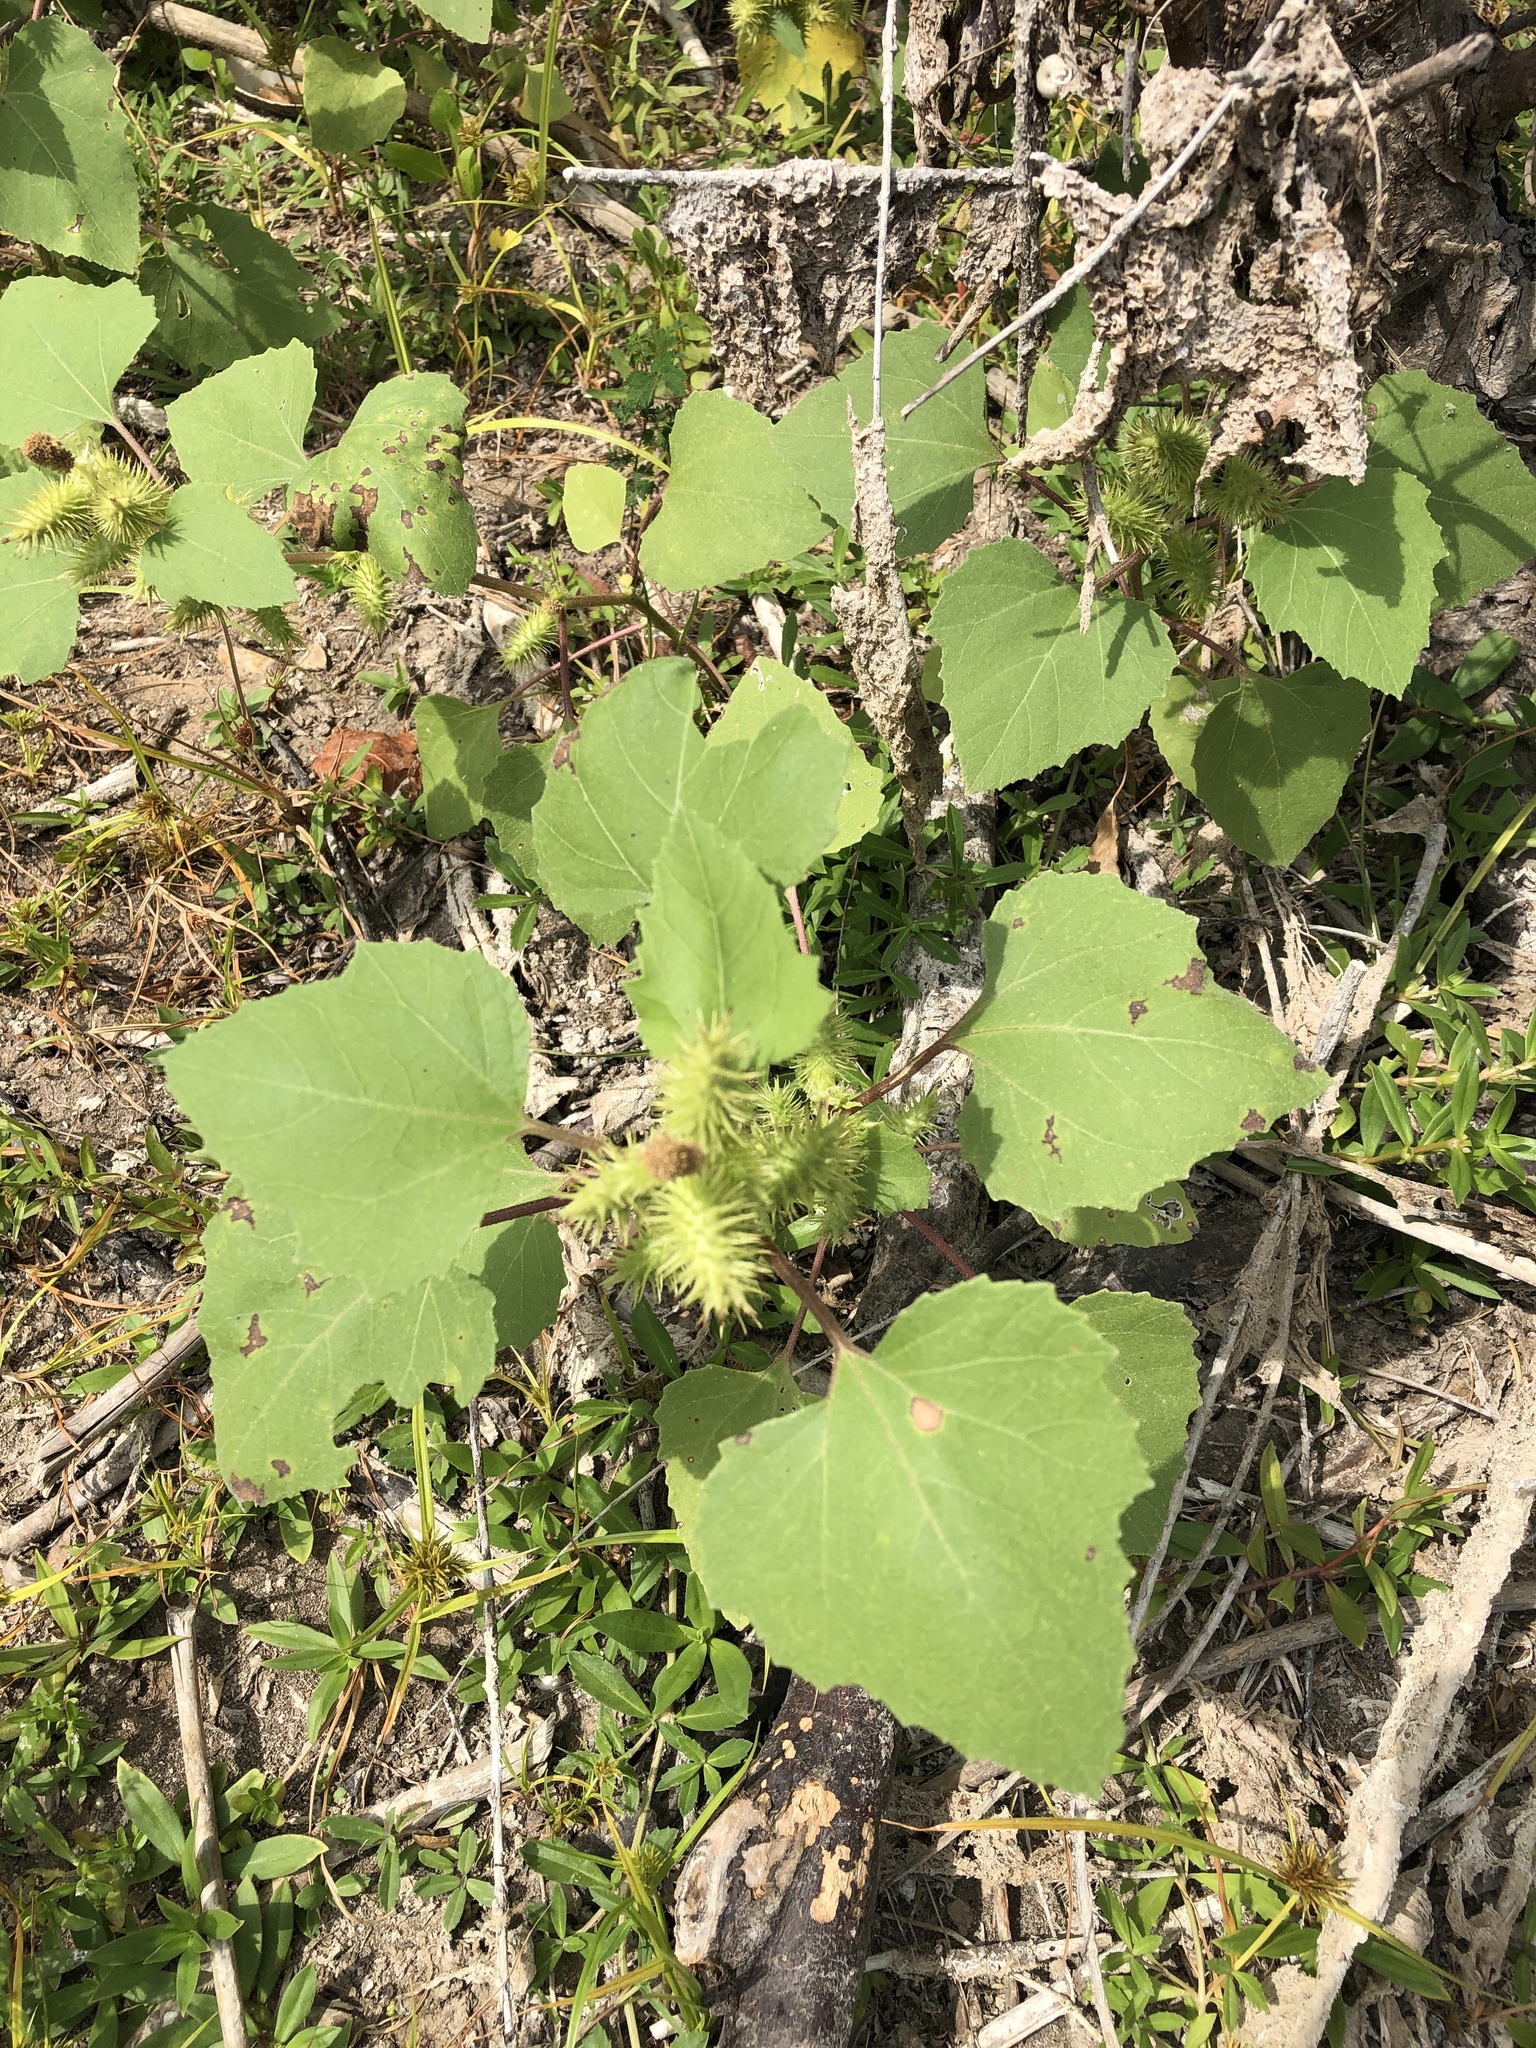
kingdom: Plantae
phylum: Tracheophyta
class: Magnoliopsida
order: Asterales
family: Asteraceae
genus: Xanthium
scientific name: Xanthium strumarium
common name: Rough cocklebur
